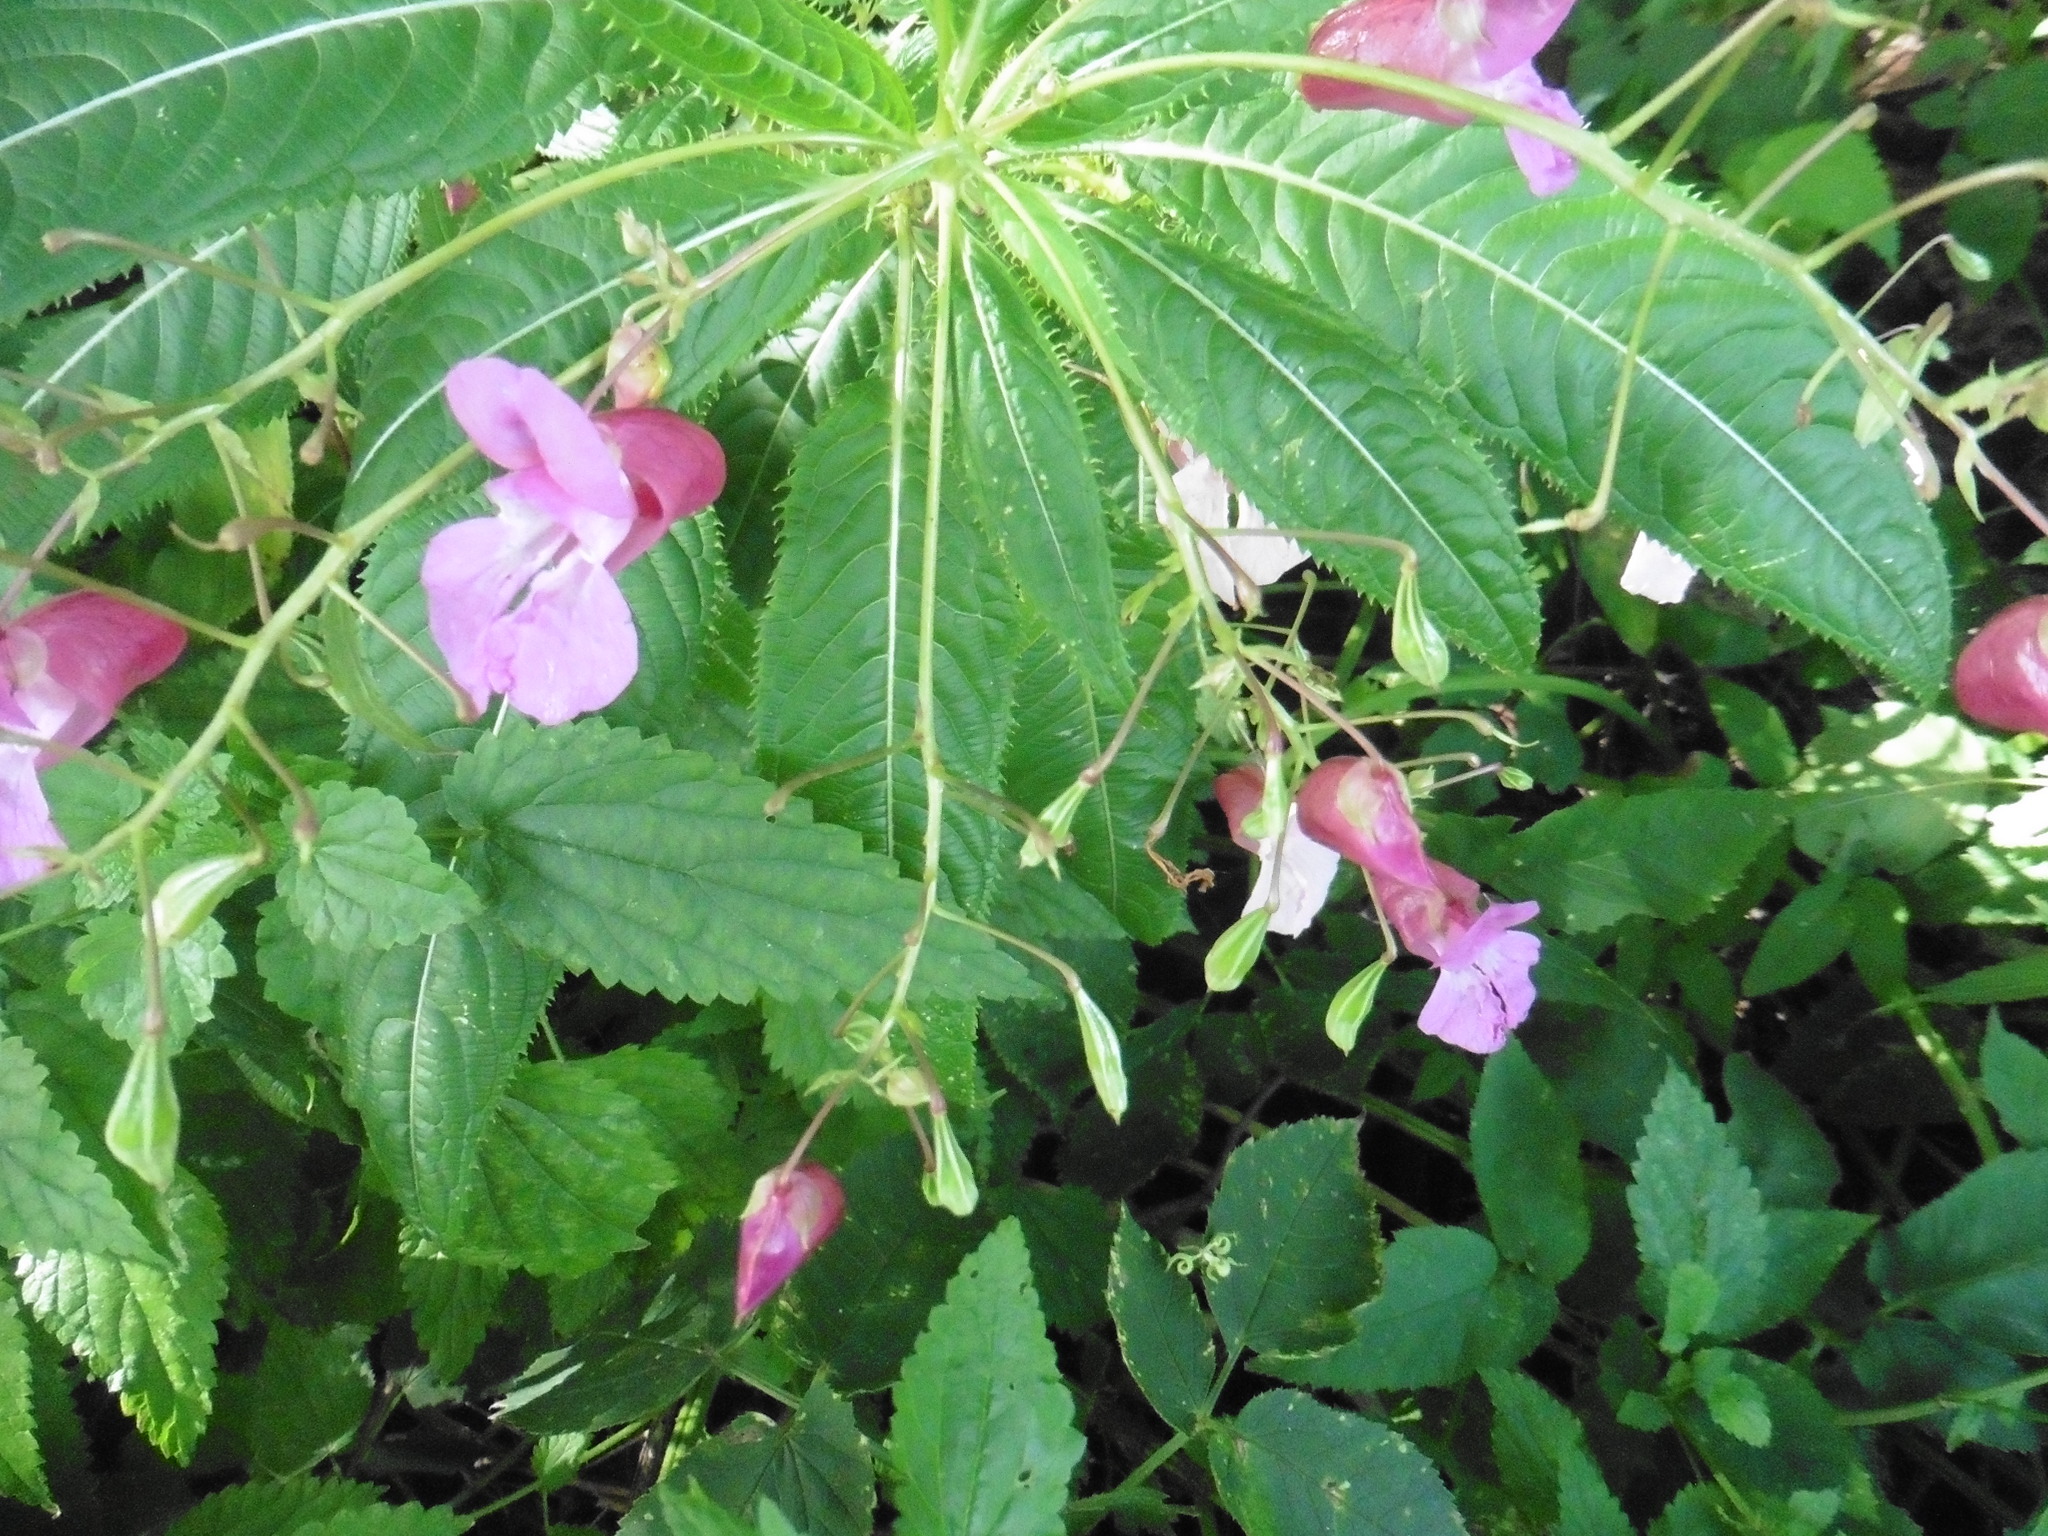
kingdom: Plantae
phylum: Tracheophyta
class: Magnoliopsida
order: Ericales
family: Balsaminaceae
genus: Impatiens
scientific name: Impatiens glandulifera
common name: Himalayan balsam
